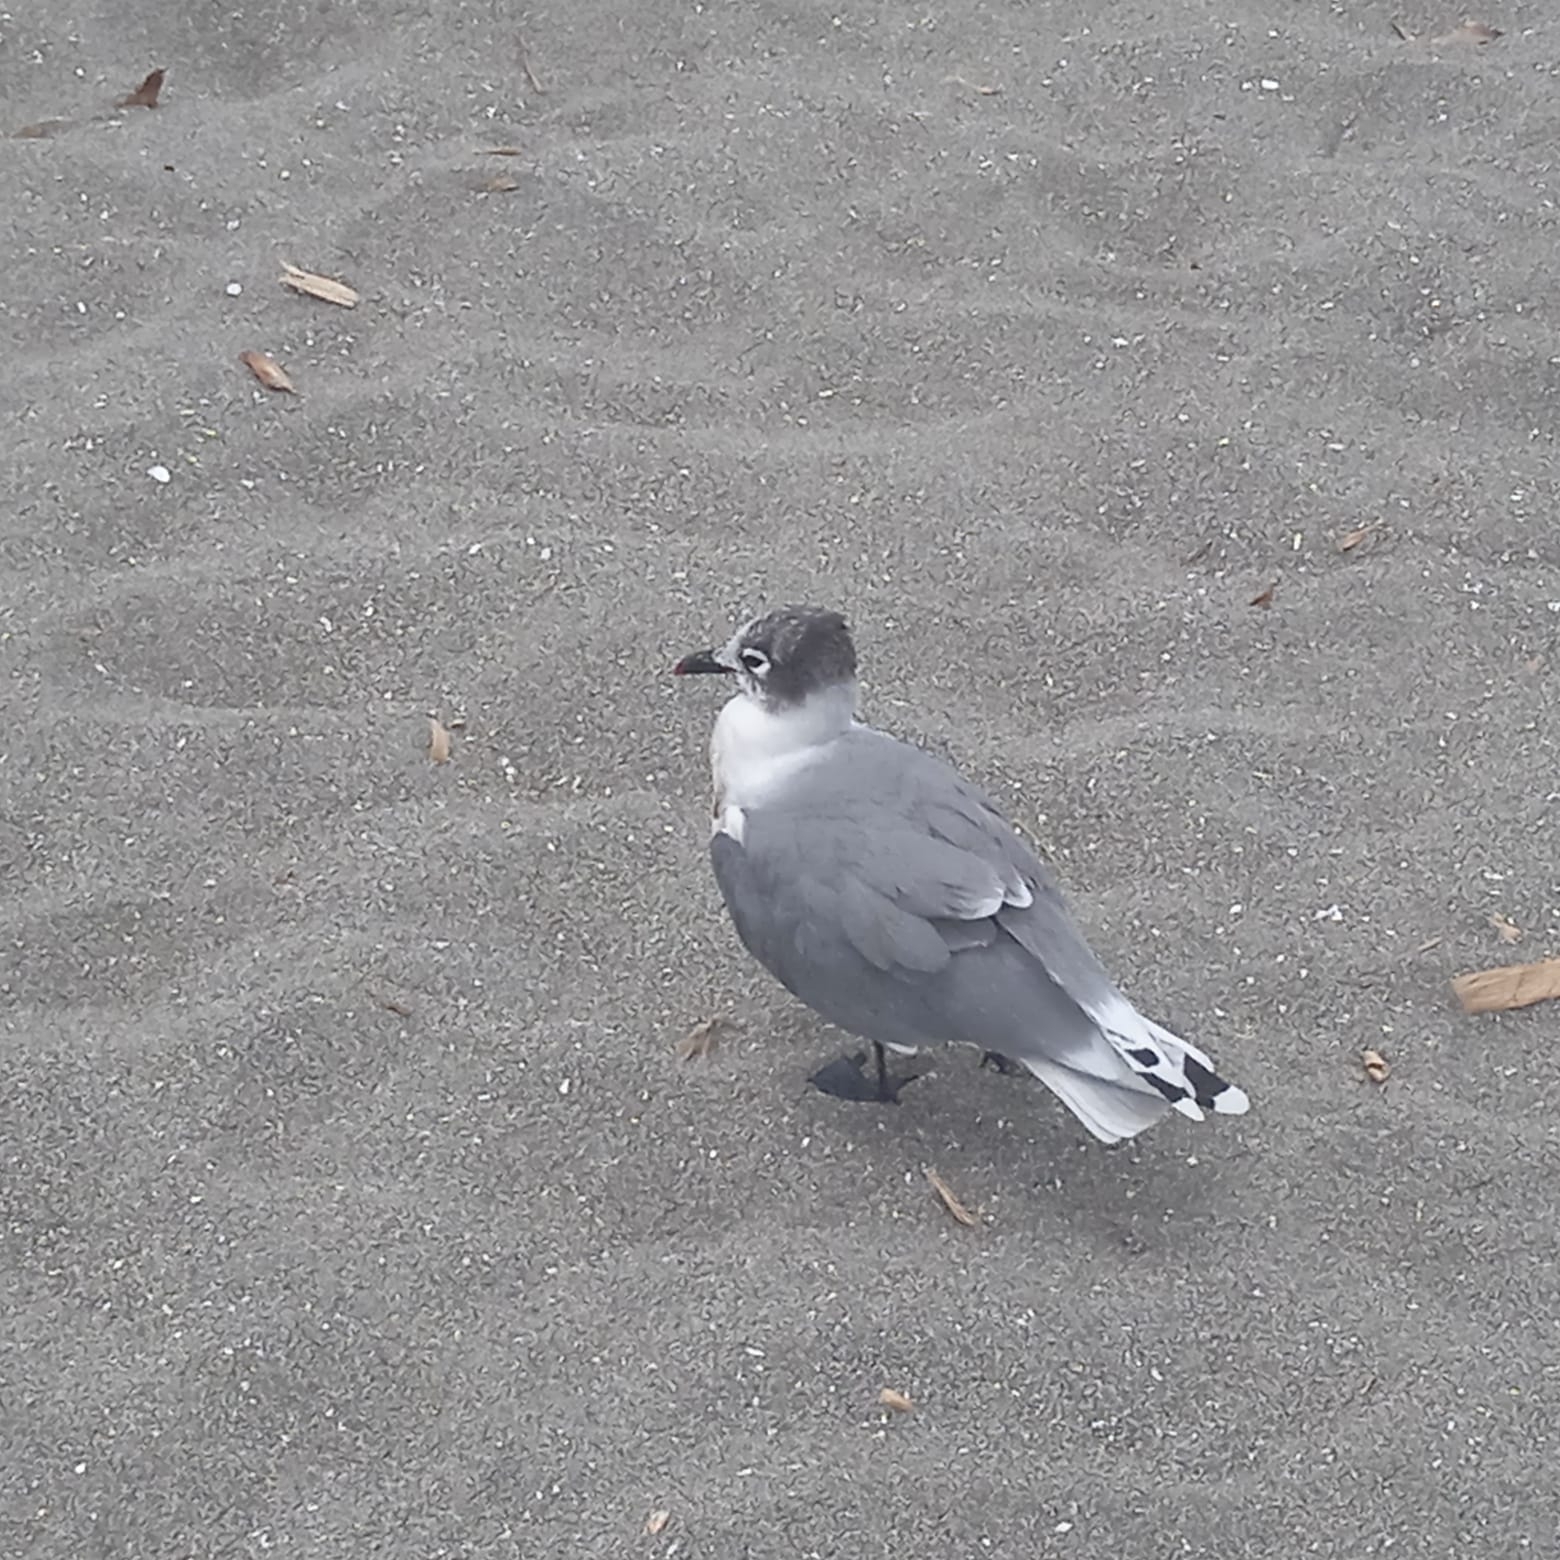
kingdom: Animalia
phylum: Chordata
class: Aves
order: Charadriiformes
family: Laridae
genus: Leucophaeus
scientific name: Leucophaeus pipixcan
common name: Franklin's gull
